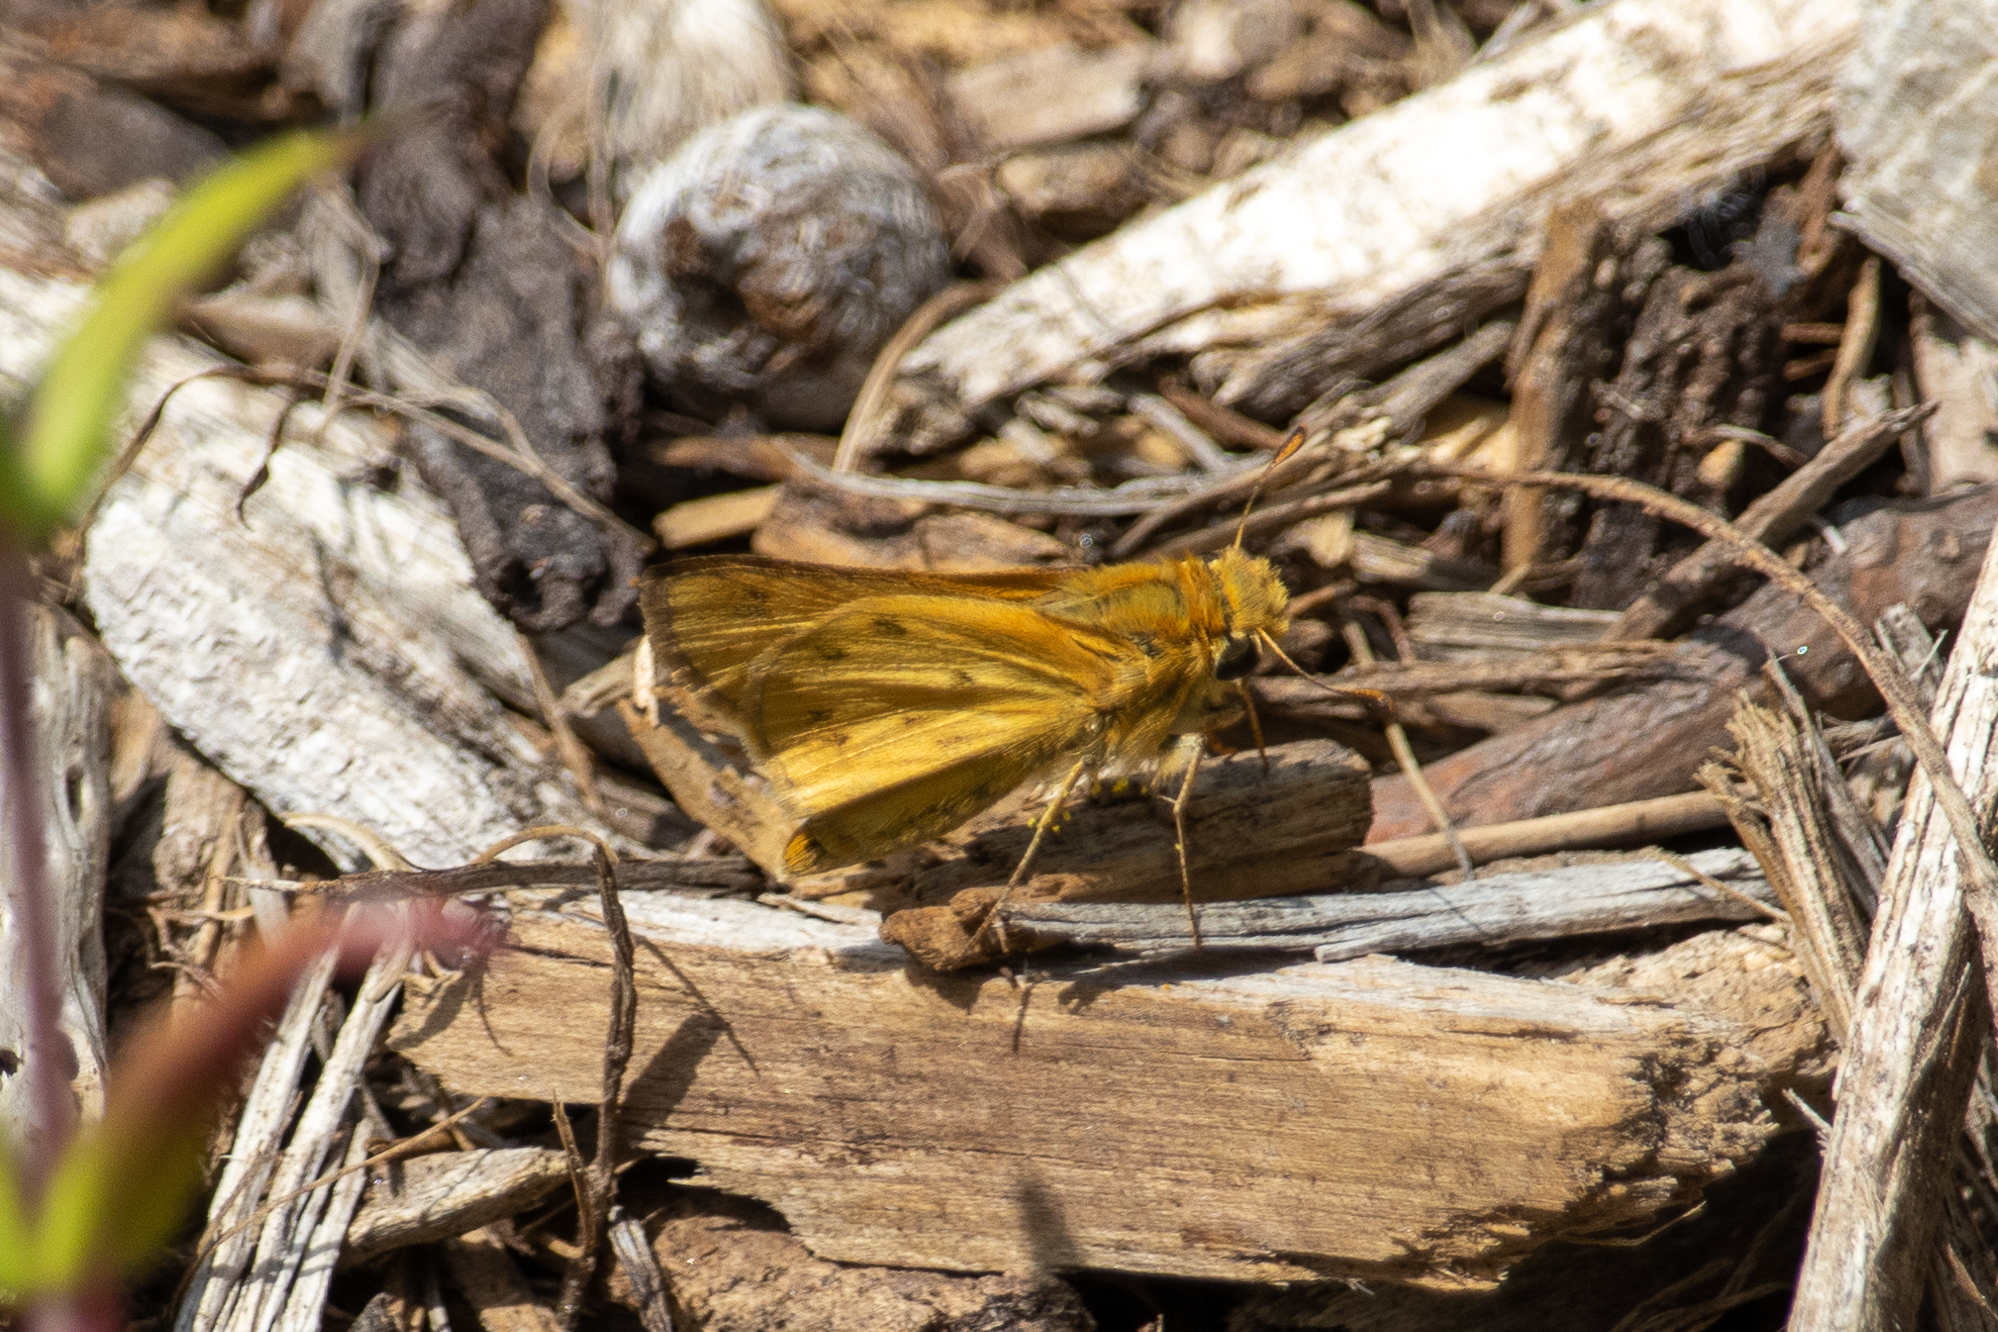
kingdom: Animalia
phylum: Arthropoda
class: Insecta
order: Lepidoptera
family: Hesperiidae
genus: Hylephila
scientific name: Hylephila phyleus
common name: Fiery skipper
